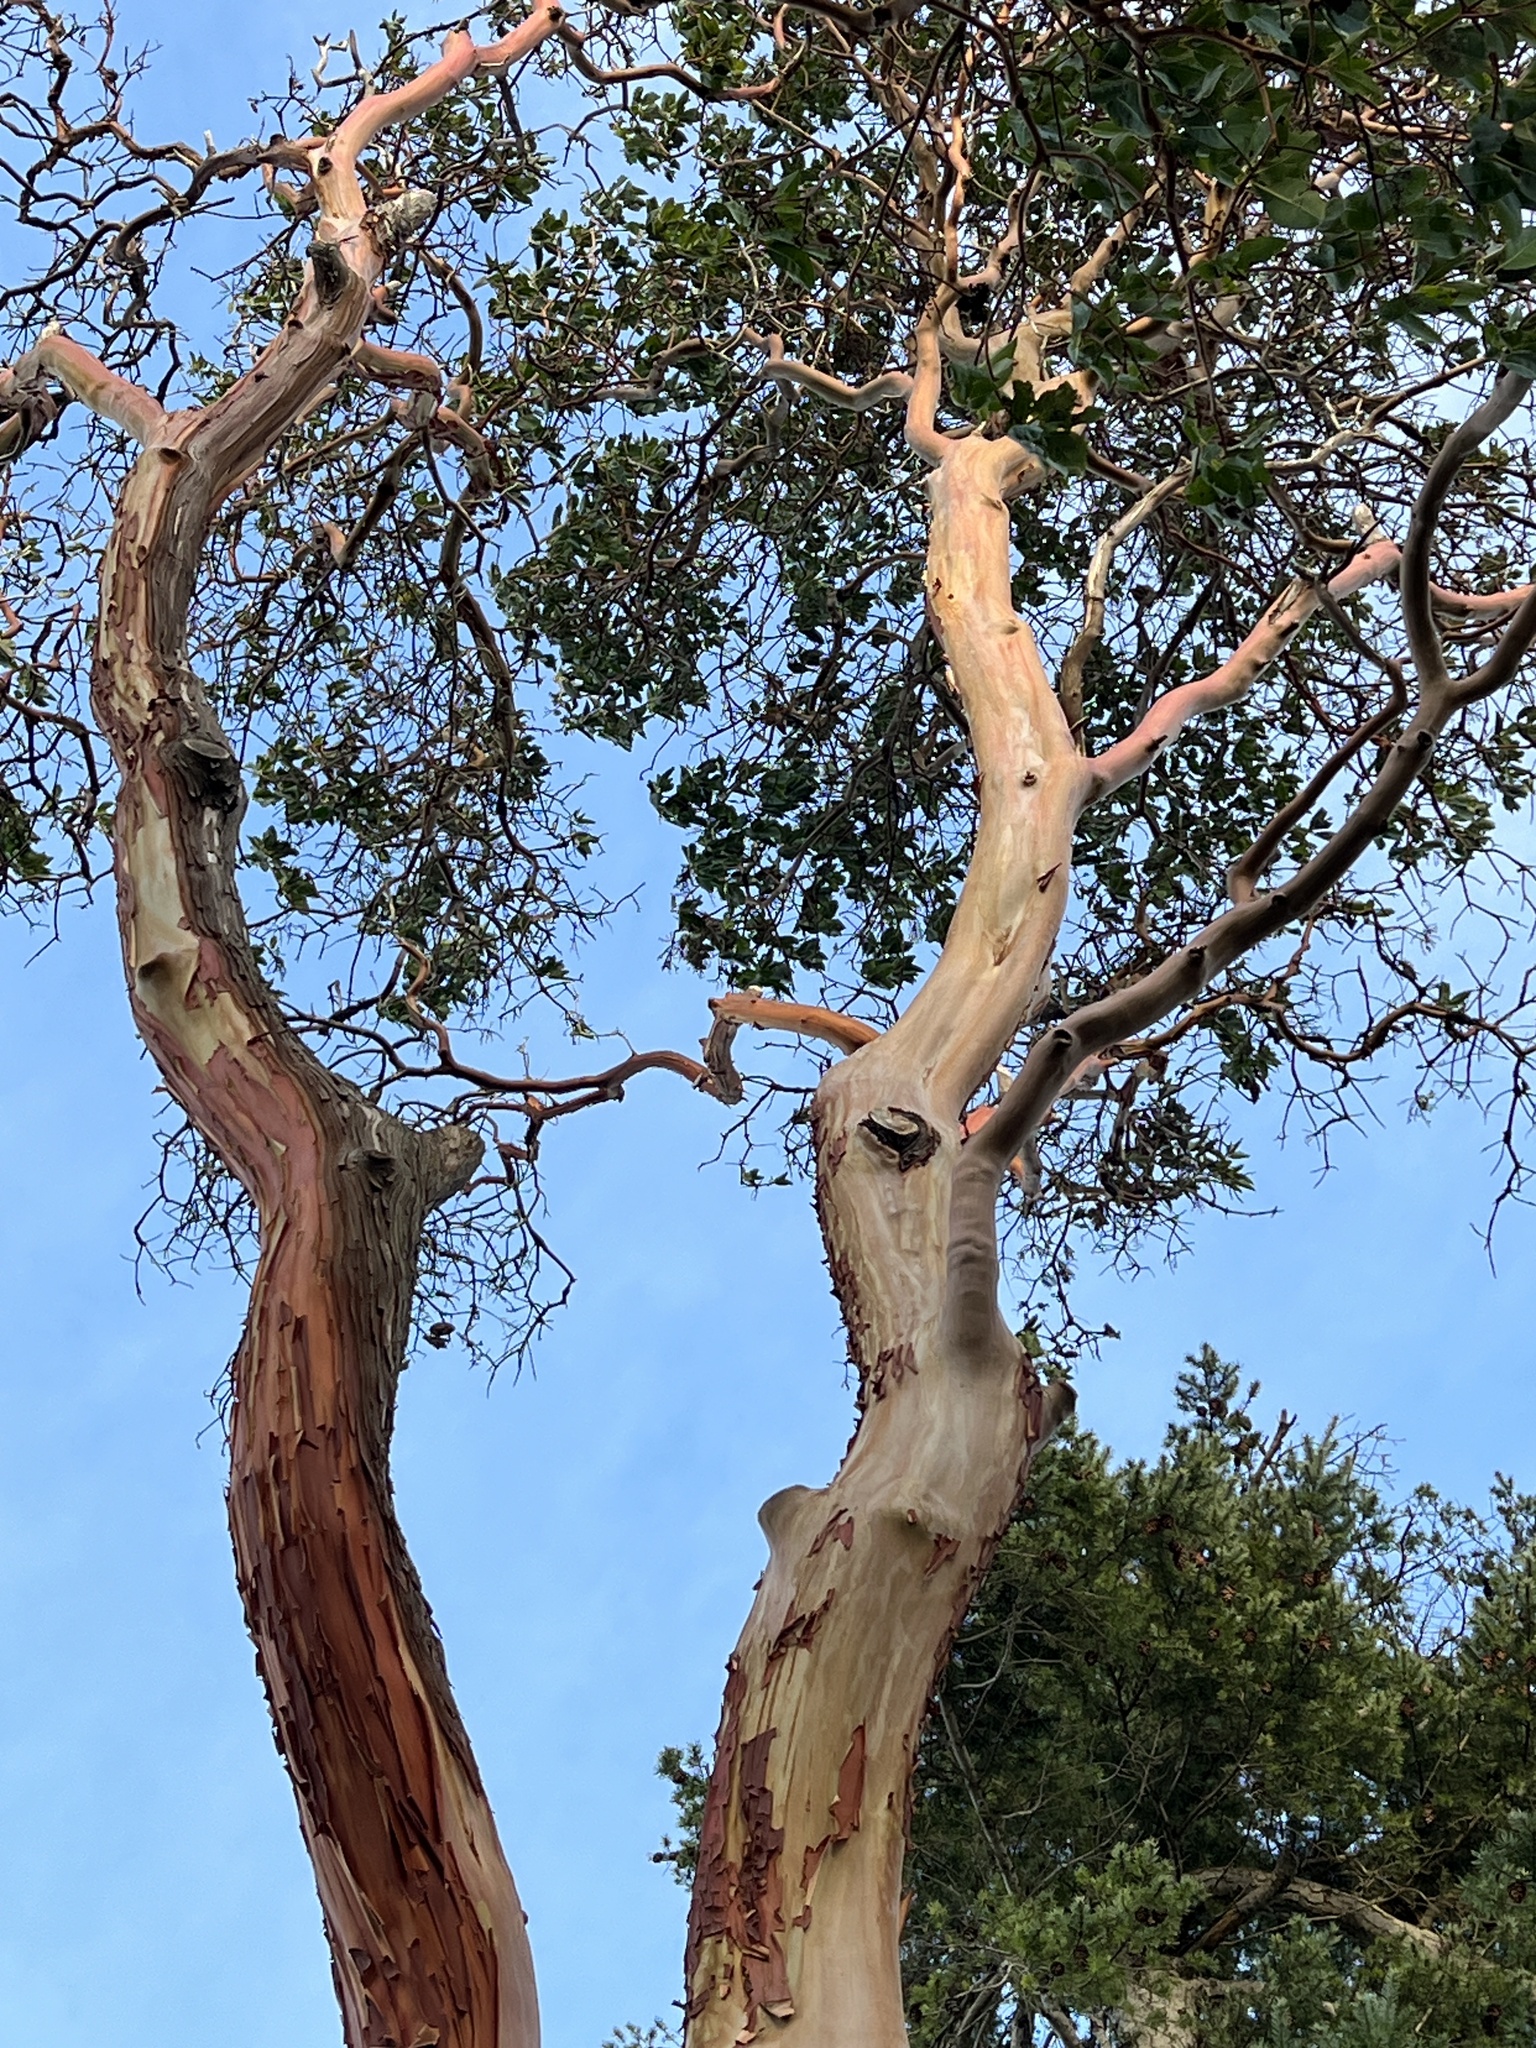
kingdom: Plantae
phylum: Tracheophyta
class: Magnoliopsida
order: Ericales
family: Ericaceae
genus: Arbutus
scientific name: Arbutus menziesii
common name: Pacific madrone
